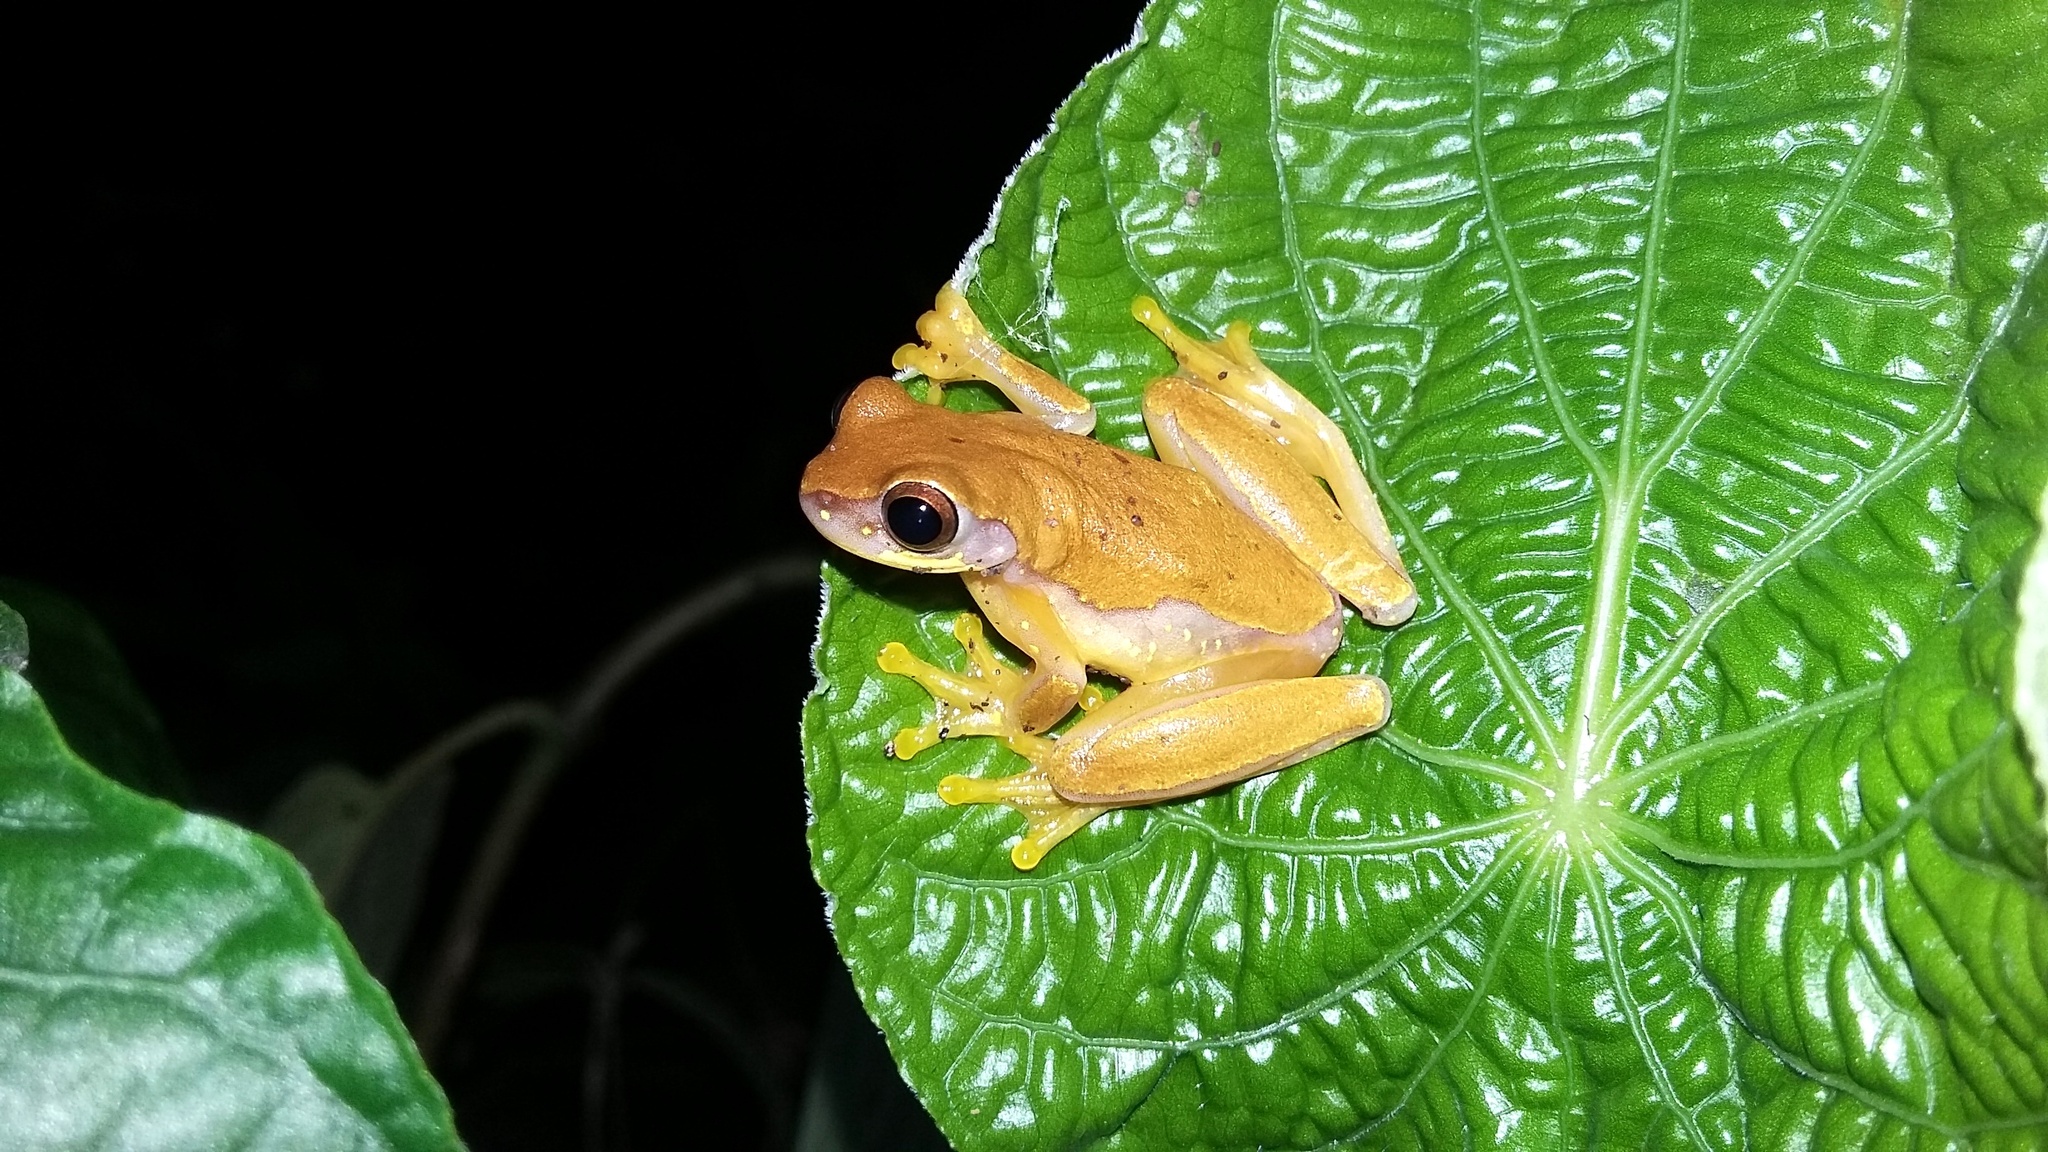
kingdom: Animalia
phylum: Chordata
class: Amphibia
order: Anura
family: Hylidae
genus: Dendropsophus
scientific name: Dendropsophus ebraccatus
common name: Hourglass treefrog
